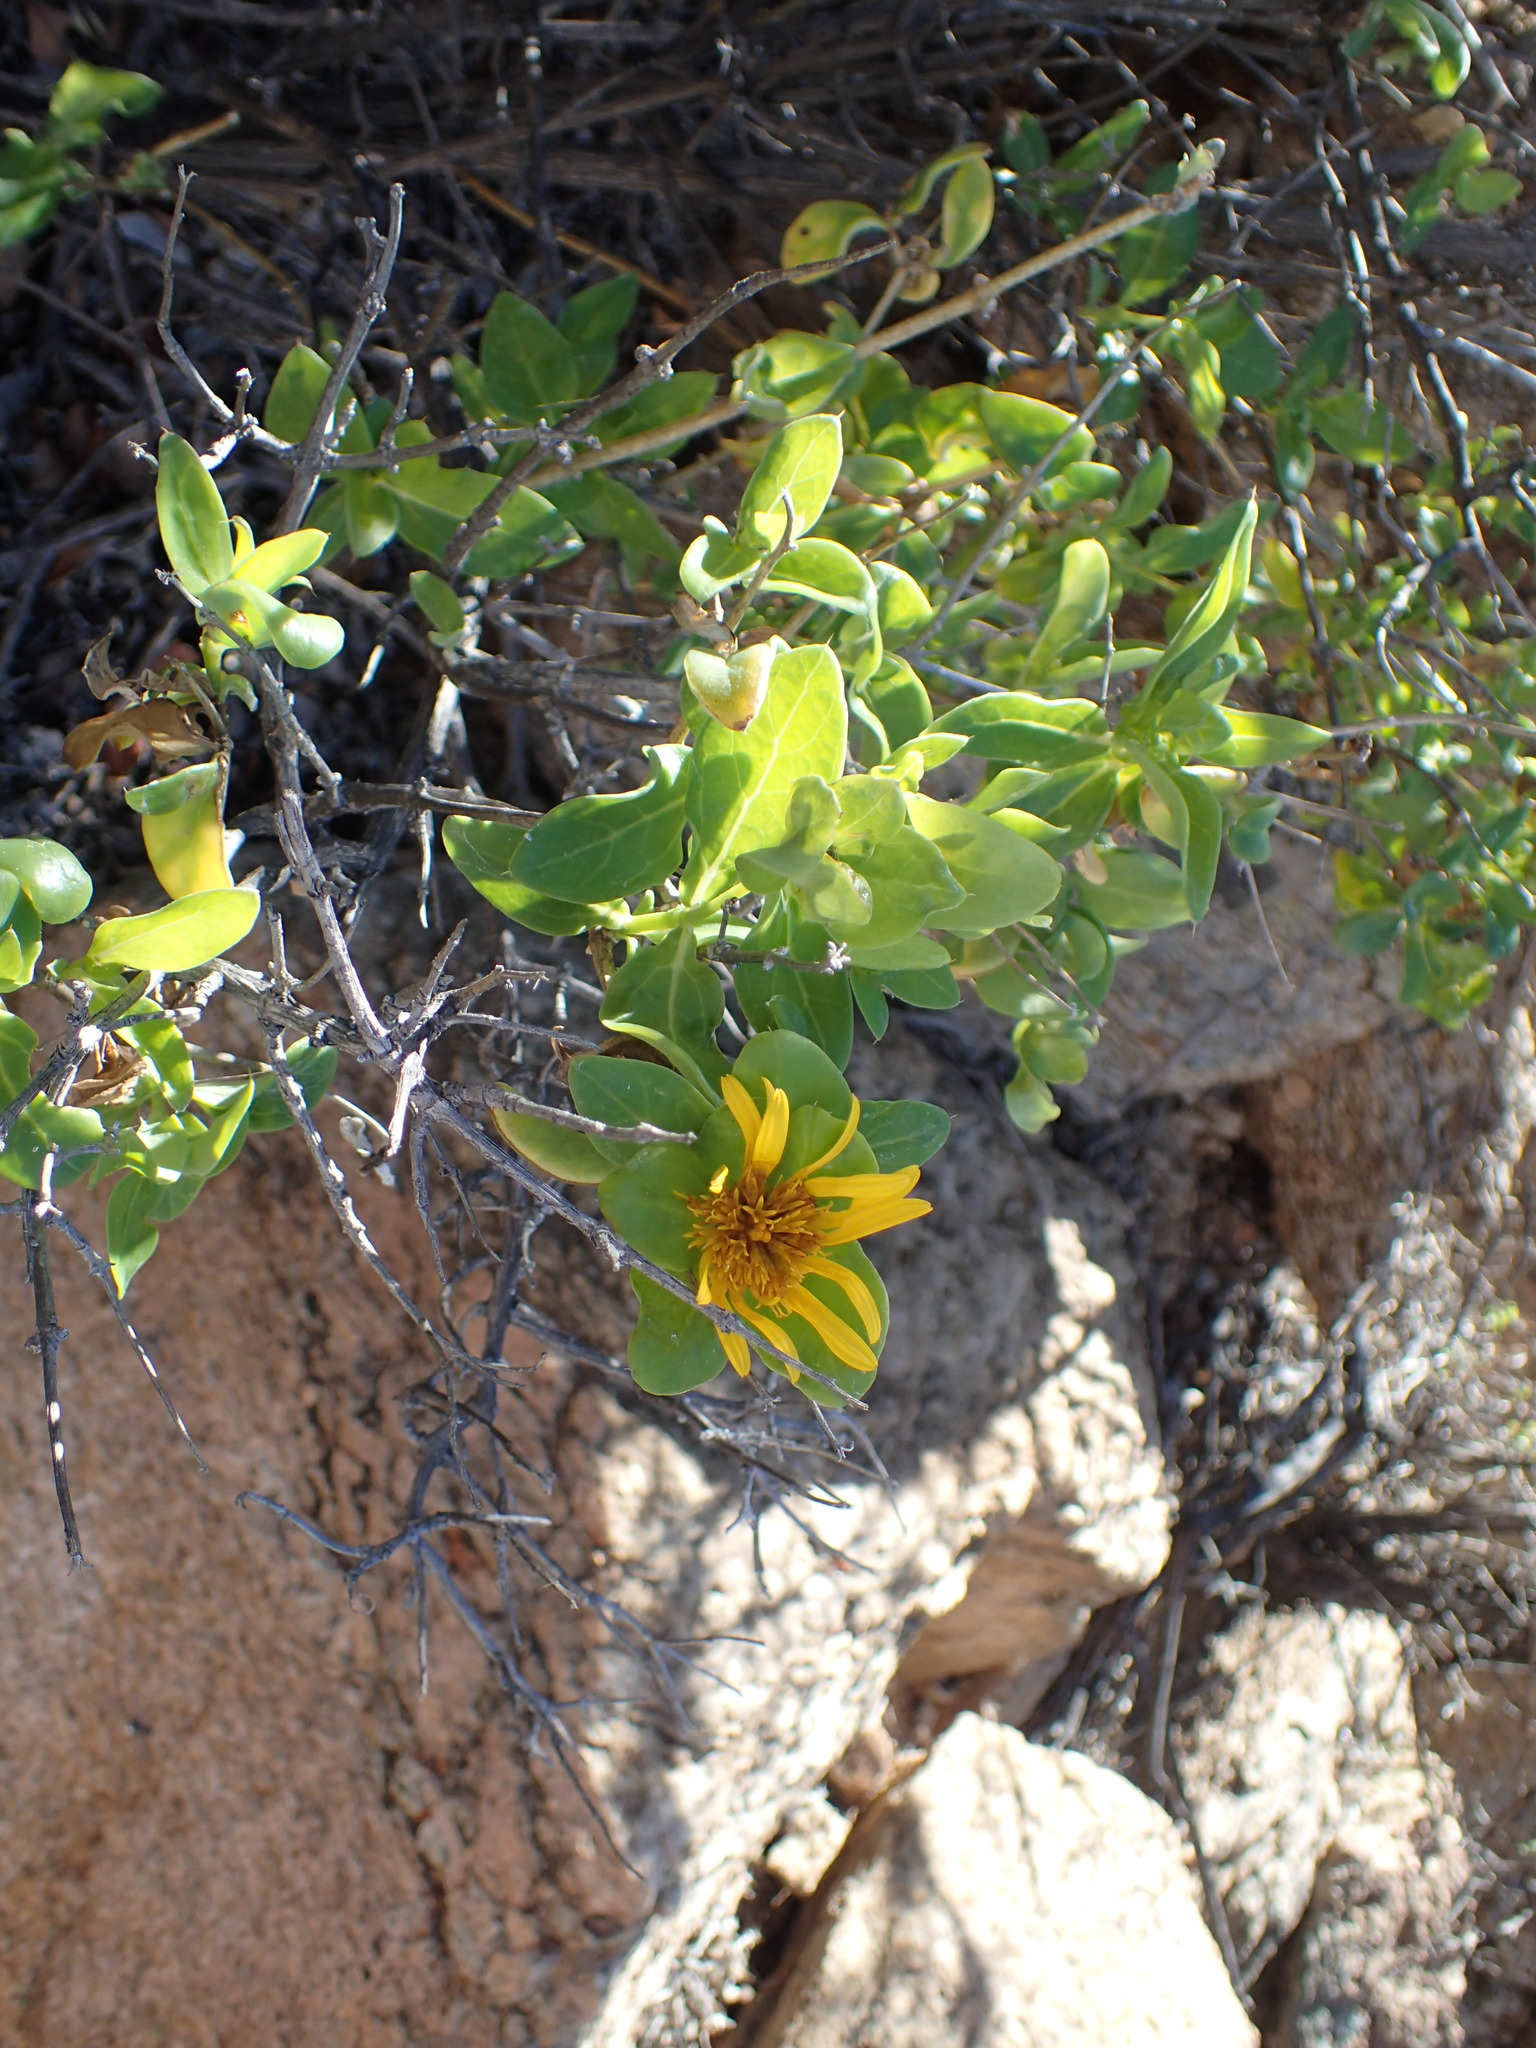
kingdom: Plantae
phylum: Tracheophyta
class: Magnoliopsida
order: Asterales
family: Asteraceae
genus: Didelta
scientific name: Didelta spinosa
